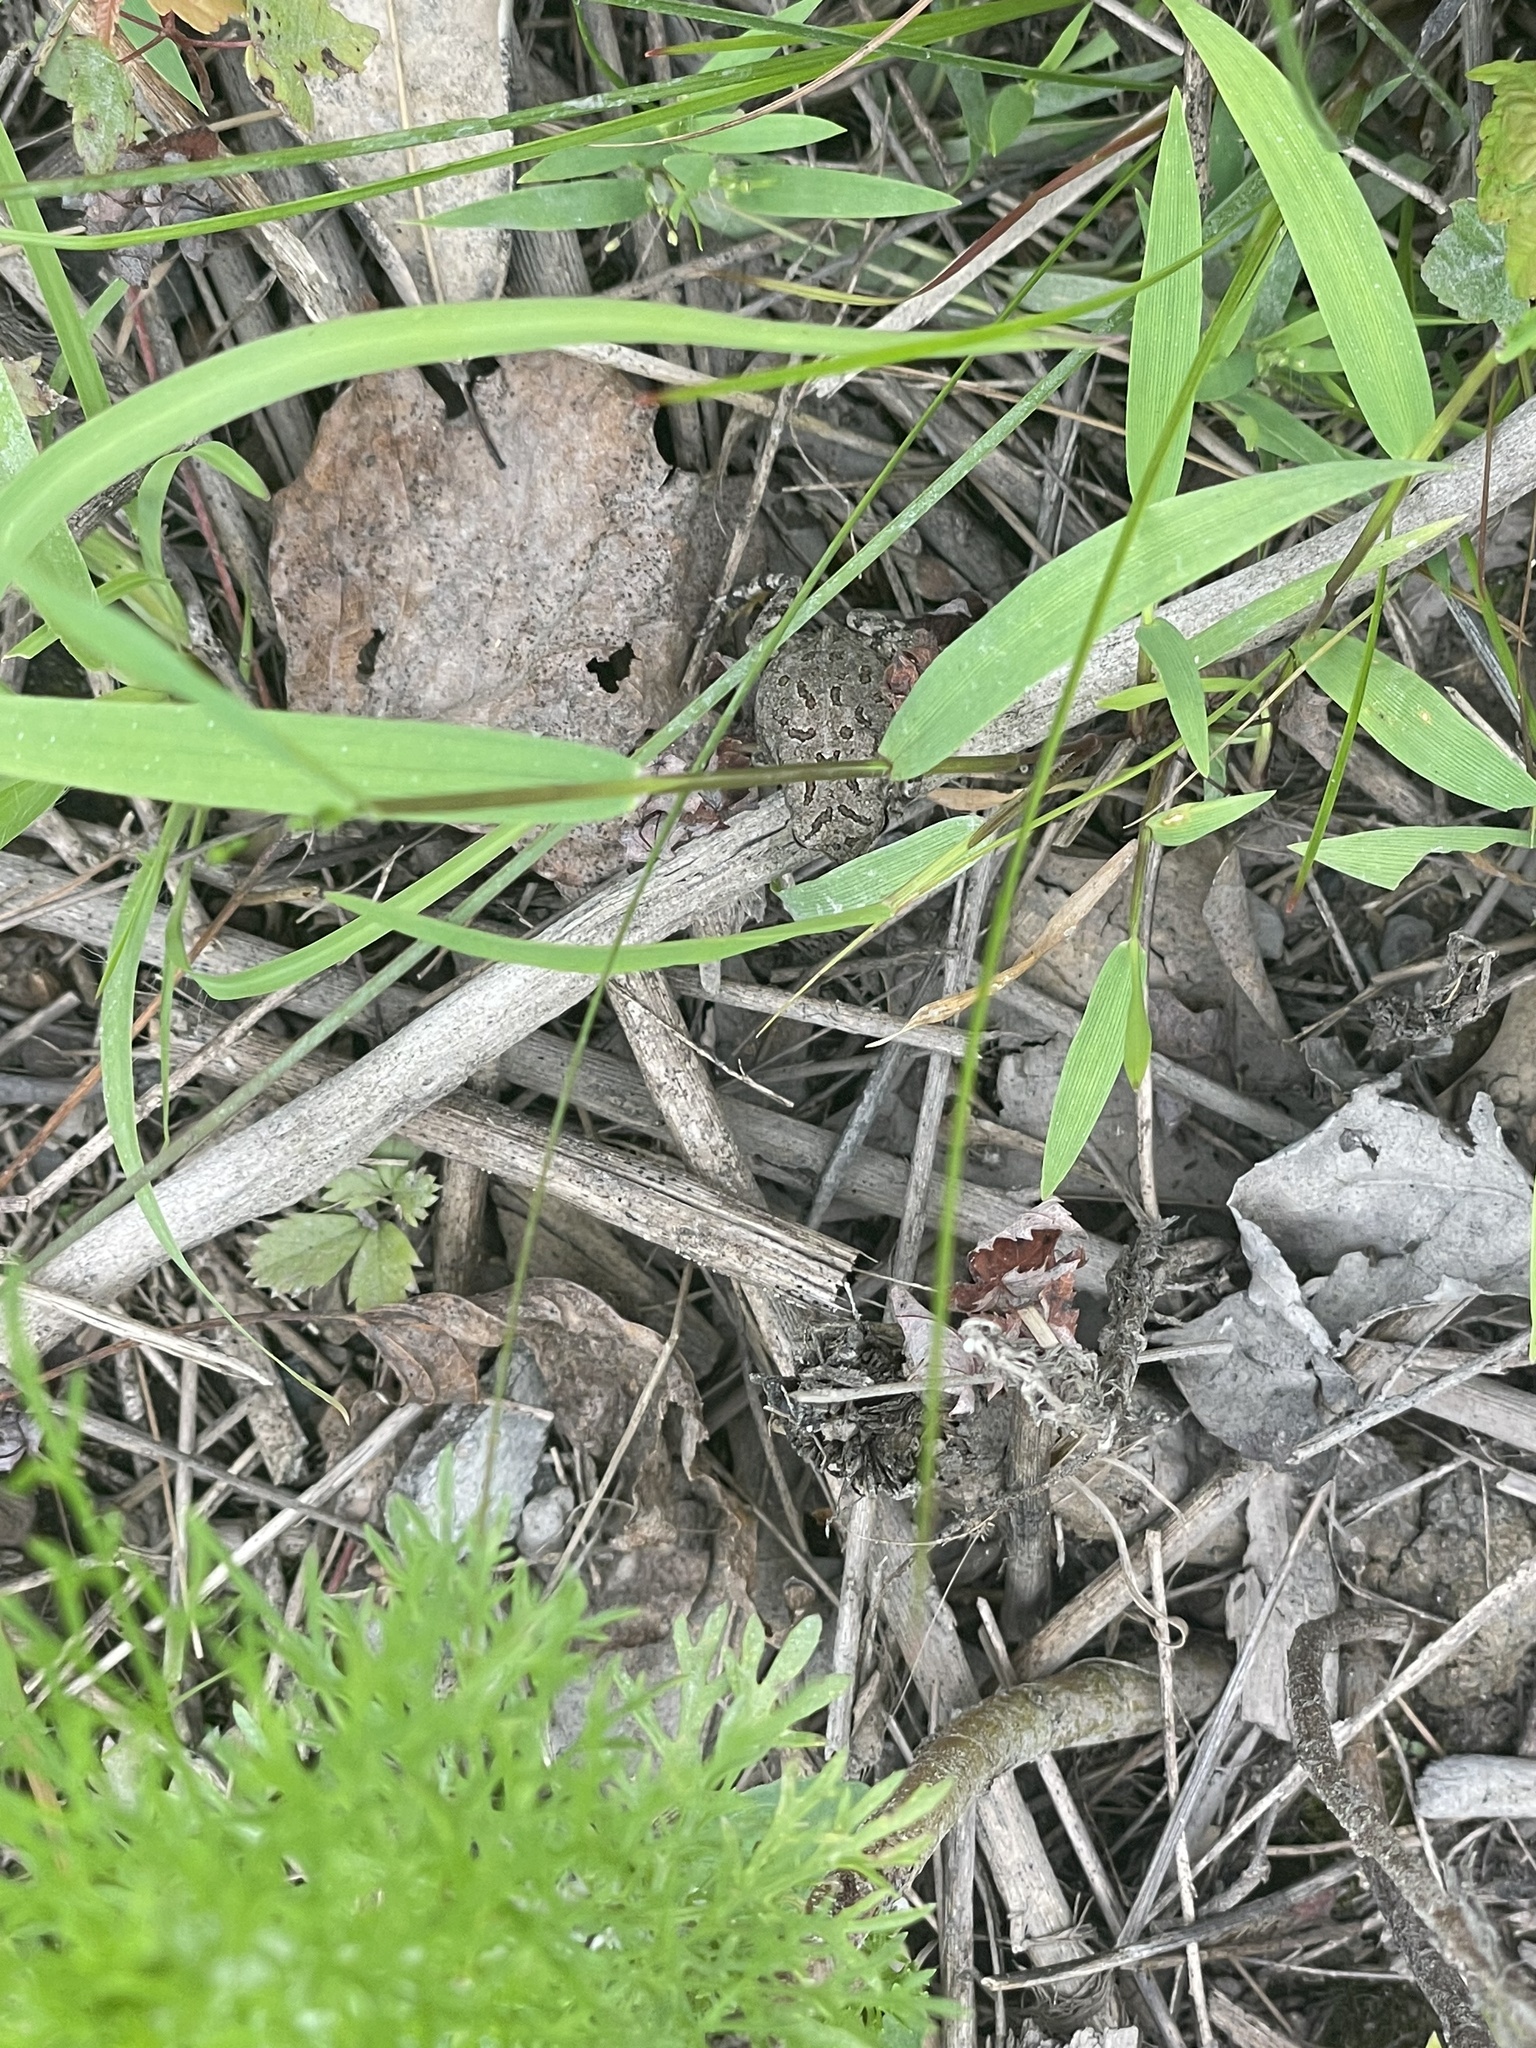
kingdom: Animalia
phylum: Chordata
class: Amphibia
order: Anura
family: Bufonidae
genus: Anaxyrus
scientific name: Anaxyrus fowleri
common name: Fowler's toad
